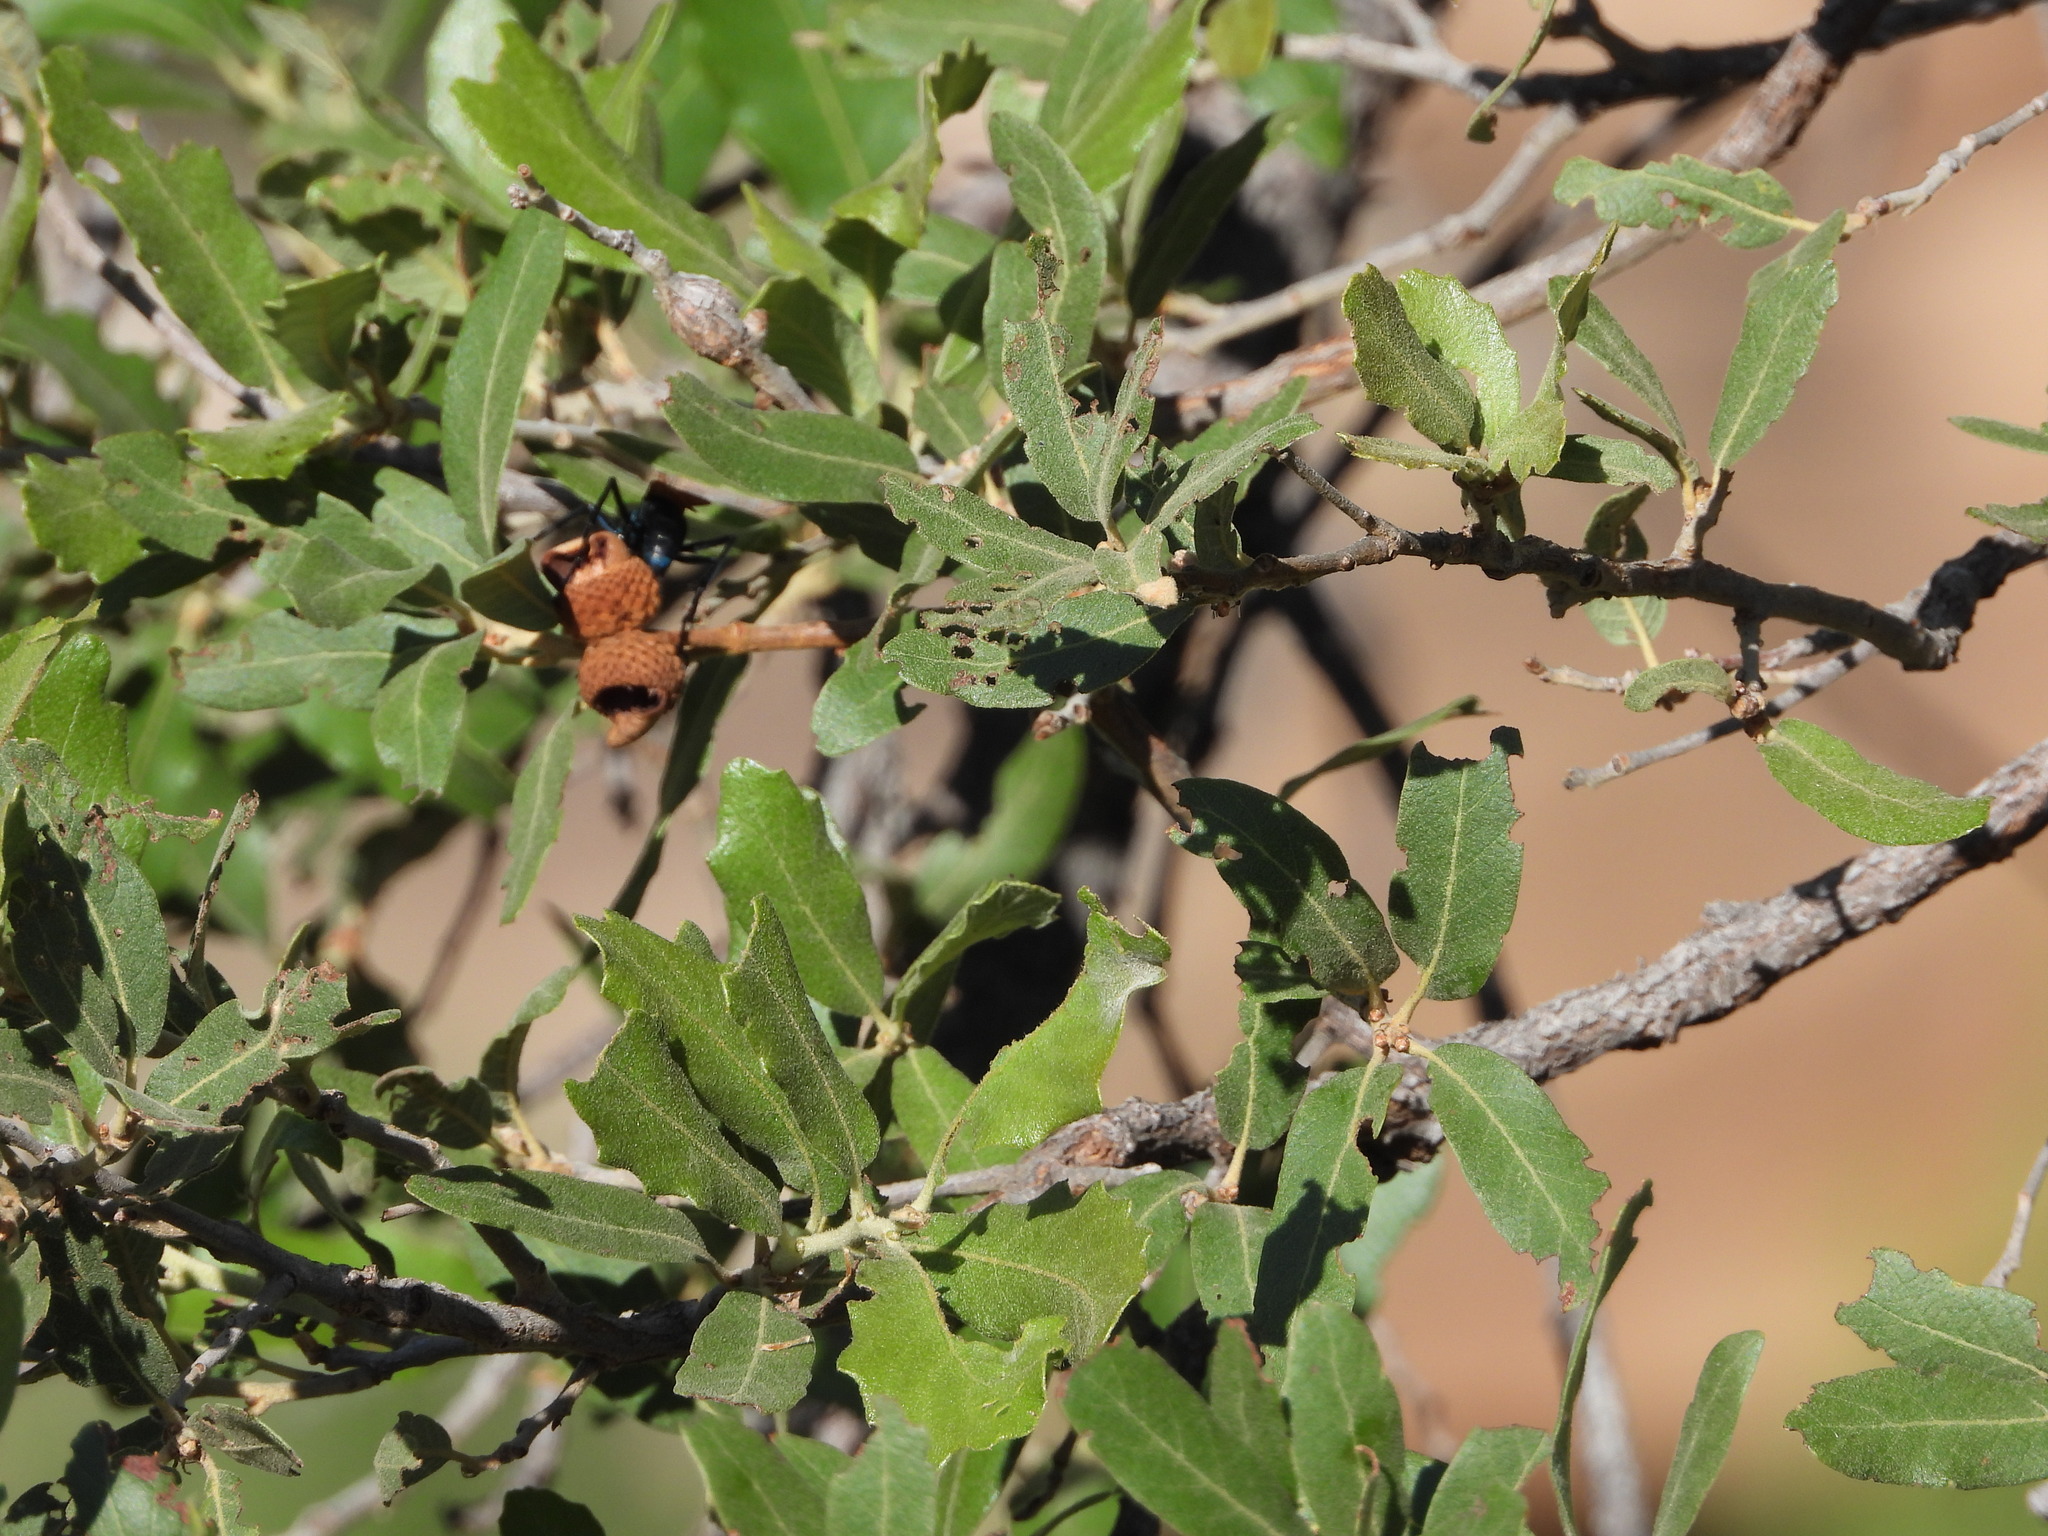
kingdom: Plantae
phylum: Tracheophyta
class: Magnoliopsida
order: Fagales
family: Fagaceae
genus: Quercus
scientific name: Quercus grisea
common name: Gray oak
